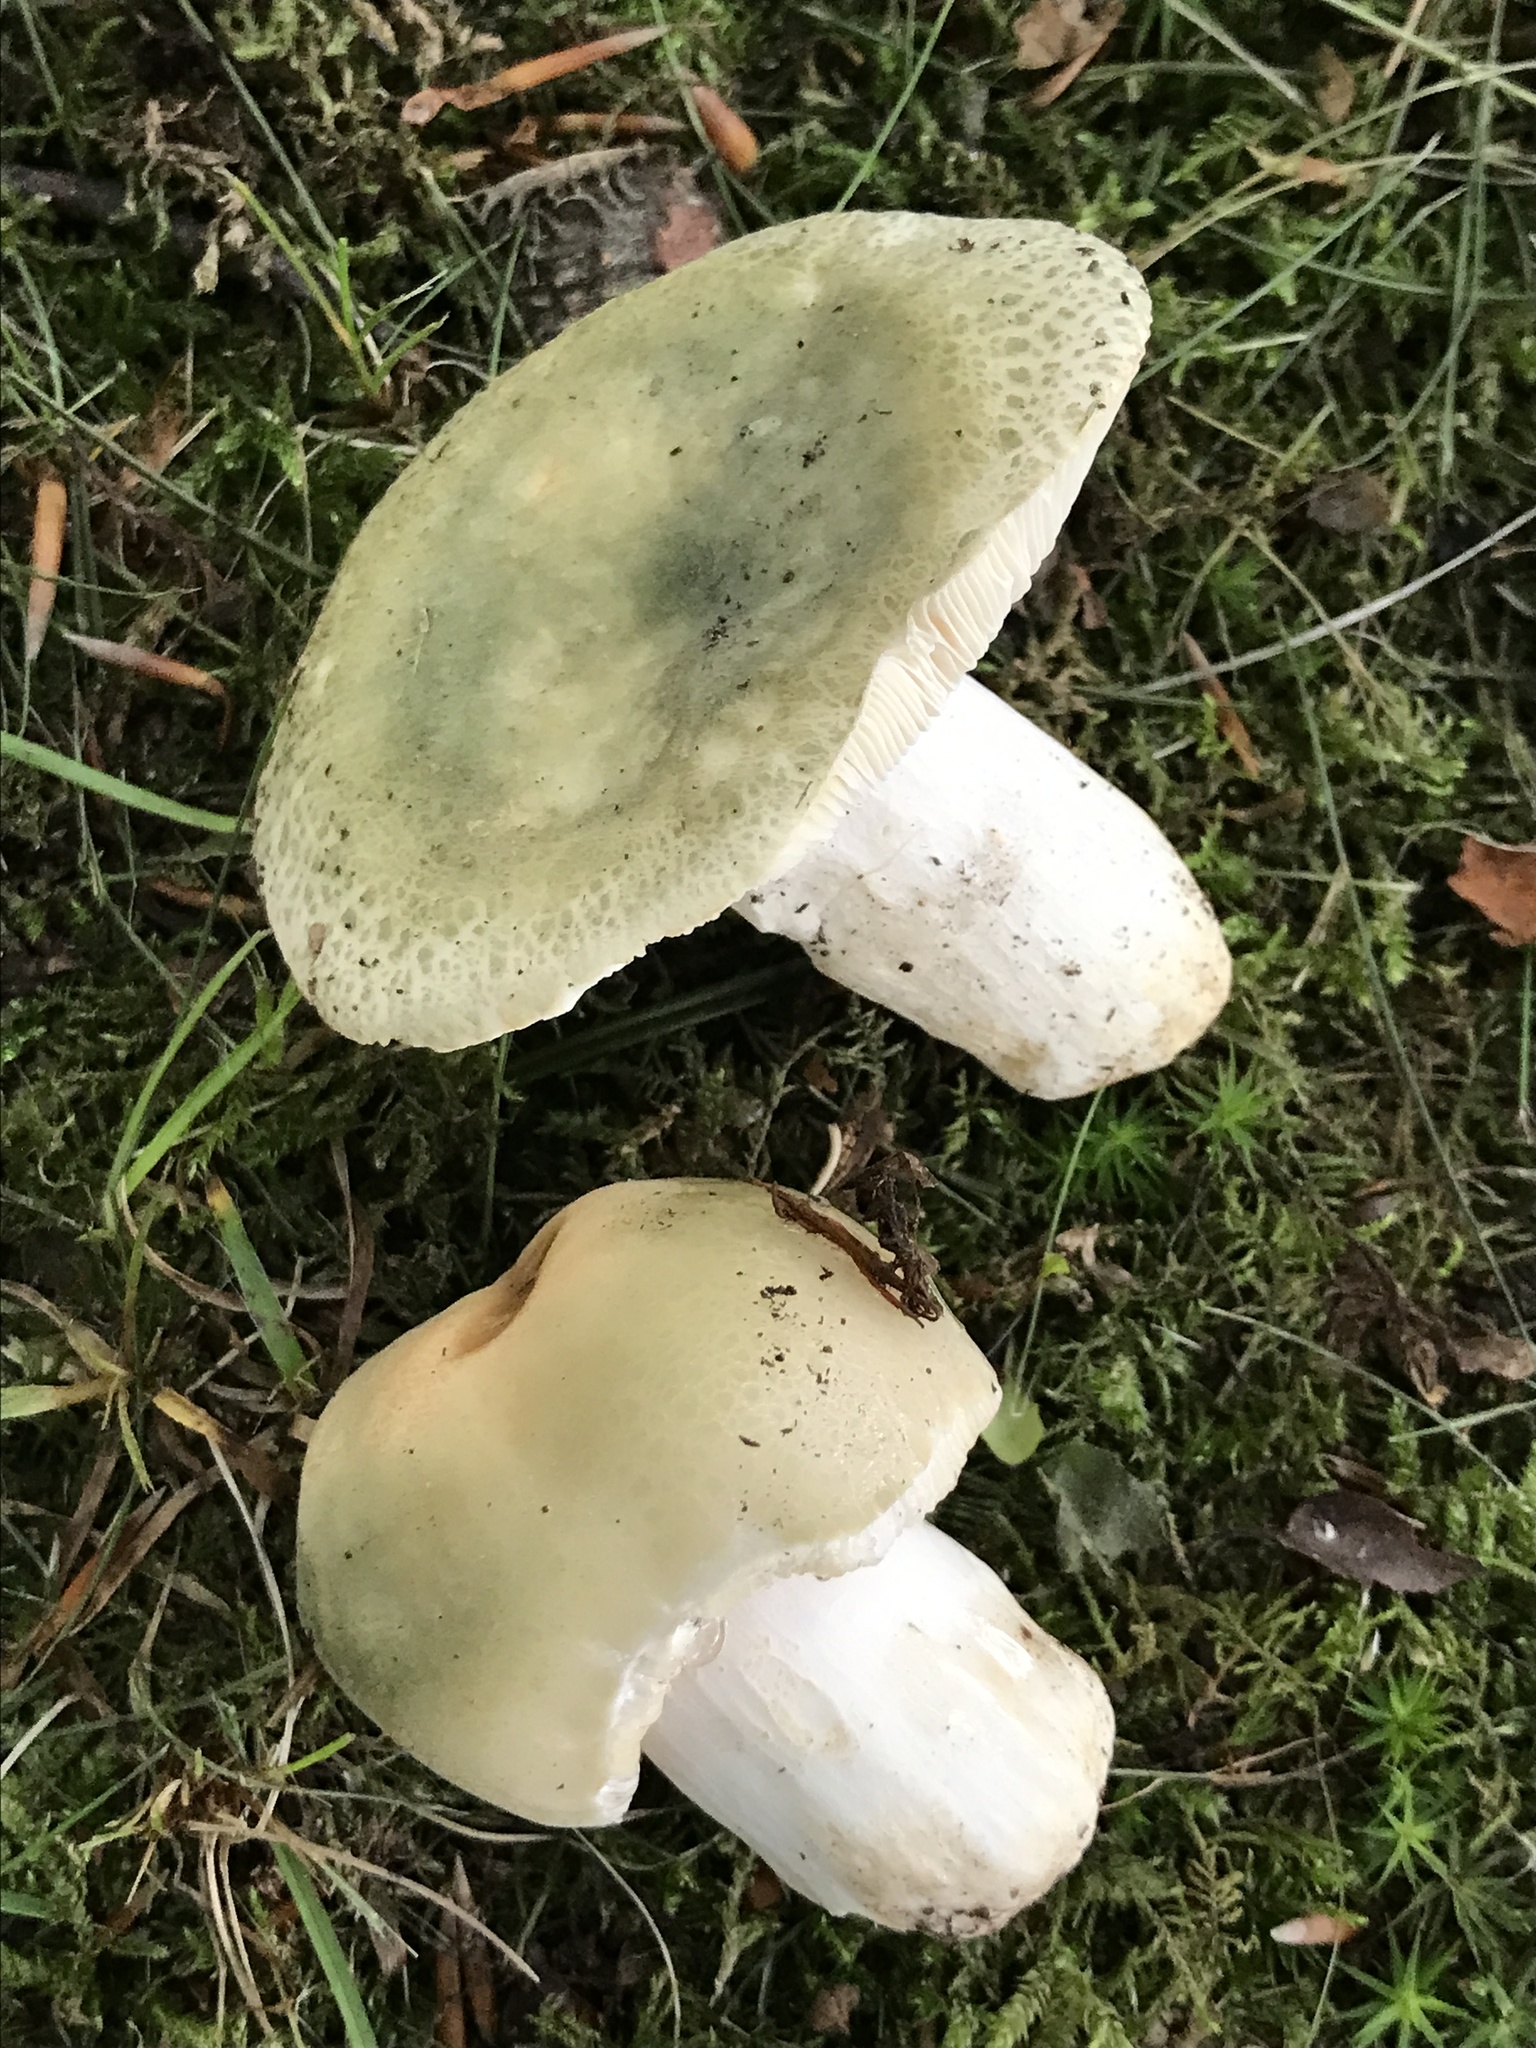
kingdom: Fungi
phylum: Basidiomycota
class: Agaricomycetes
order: Russulales
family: Russulaceae
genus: Russula
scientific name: Russula virescens
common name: Greencracked brittlegill
